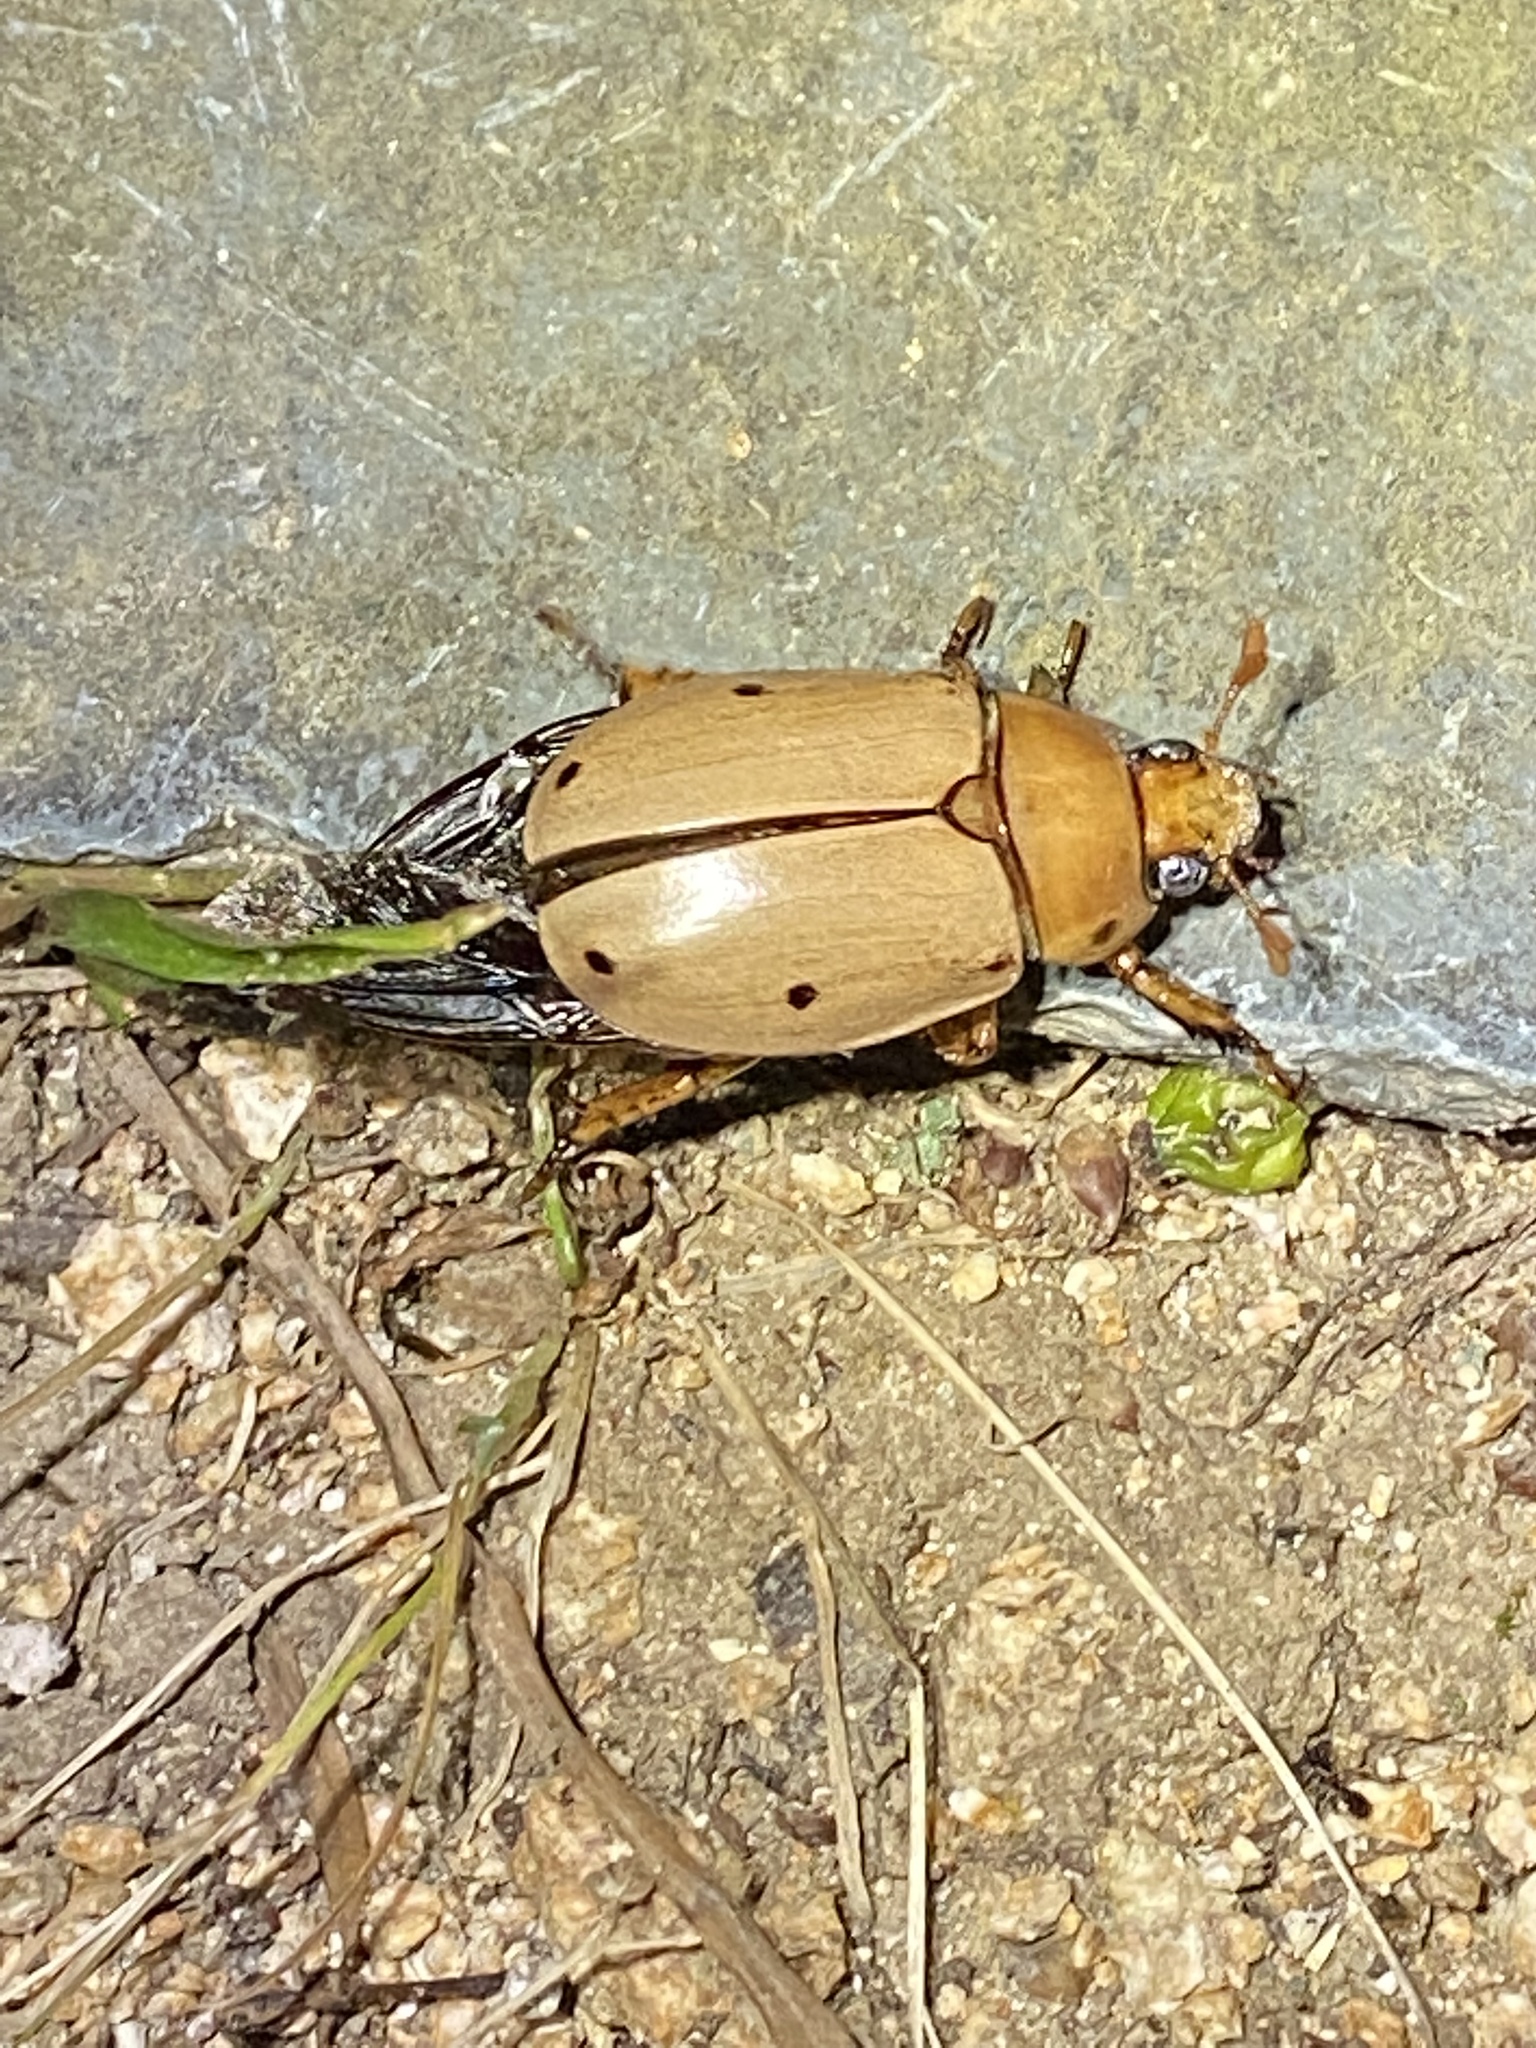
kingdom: Animalia
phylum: Arthropoda
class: Insecta
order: Coleoptera
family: Scarabaeidae
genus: Pelidnota
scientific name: Pelidnota punctata
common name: Grapevine beetle
